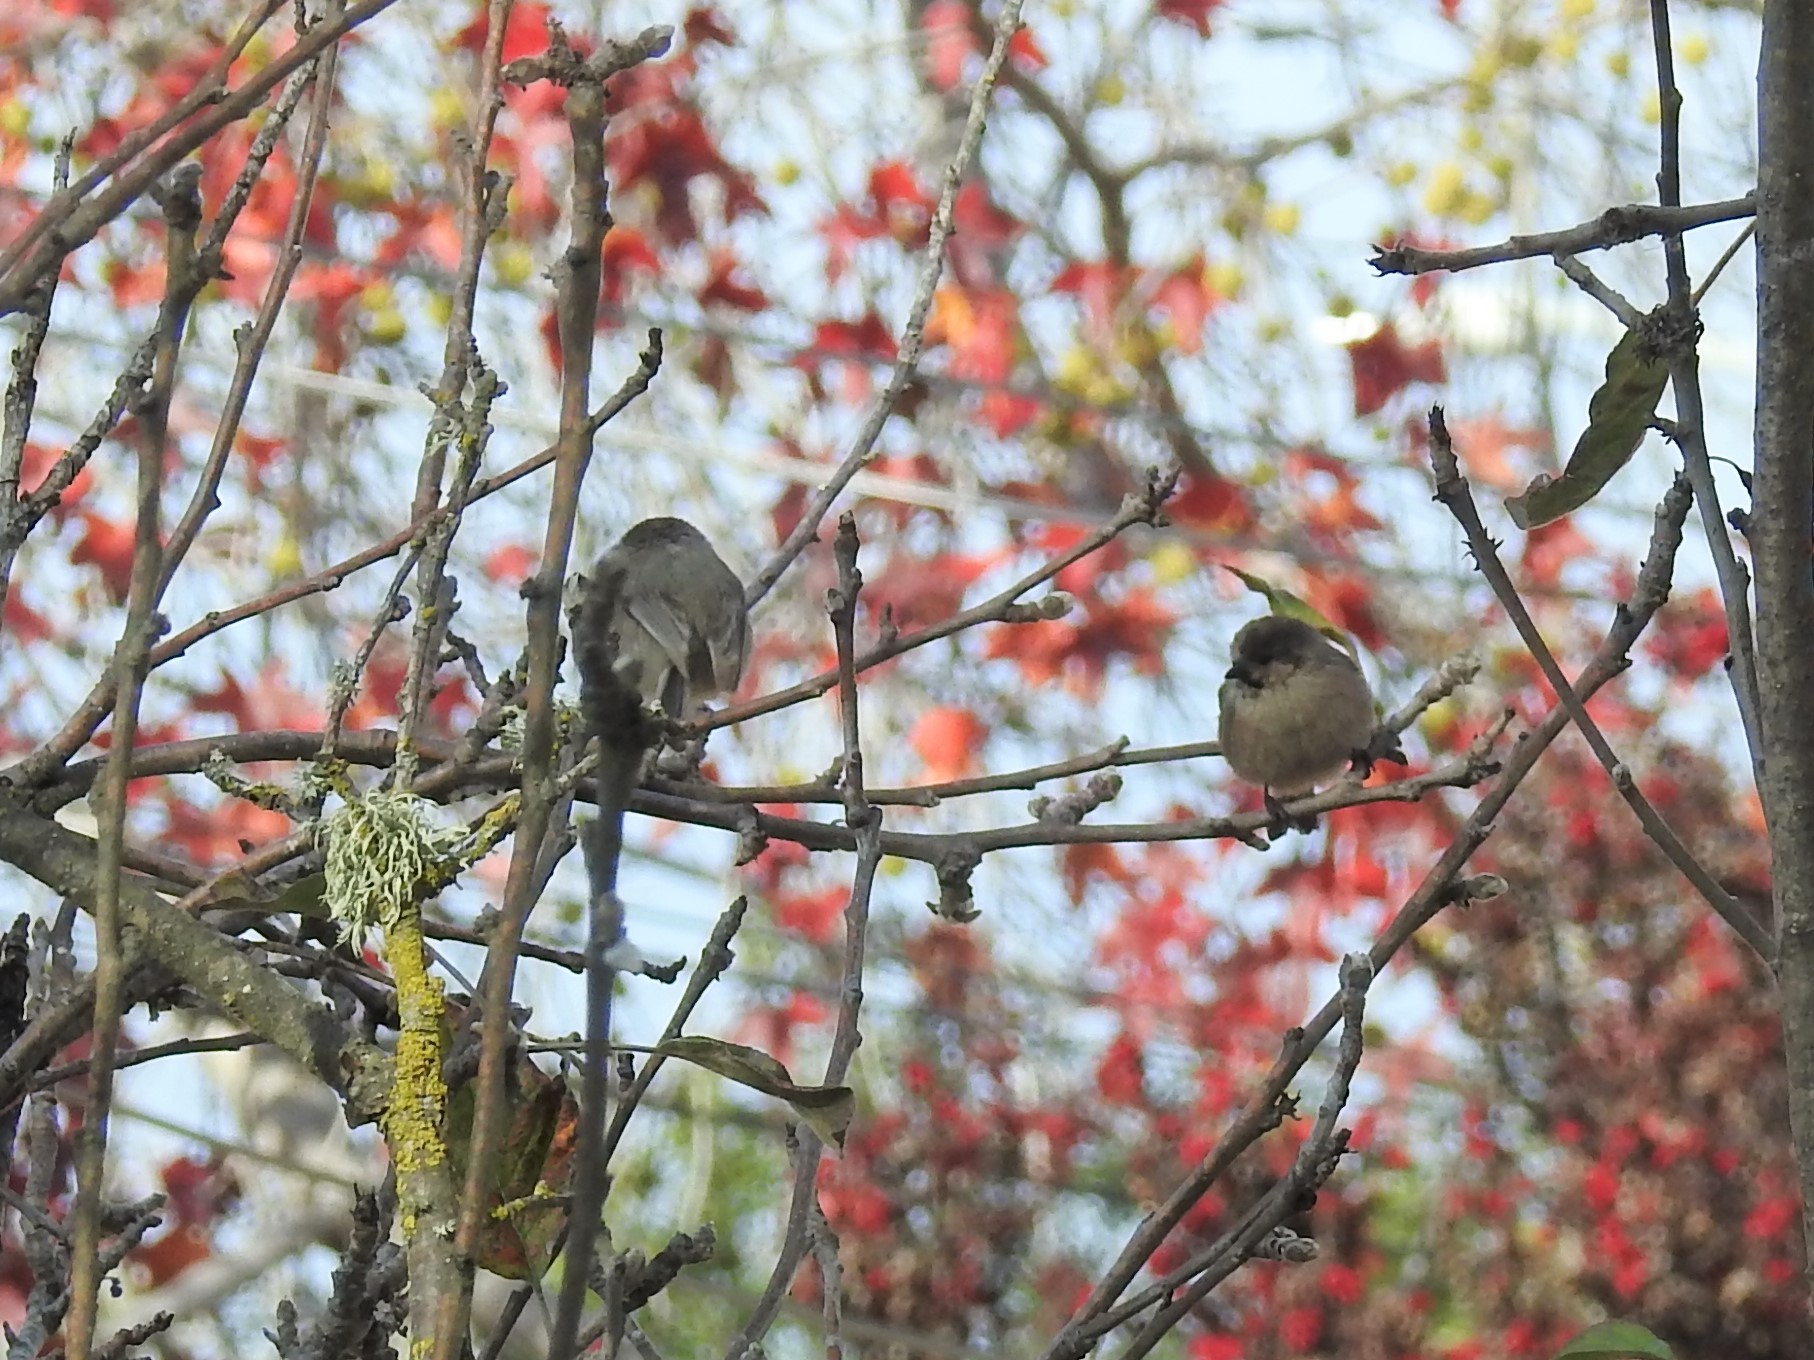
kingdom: Animalia
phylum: Chordata
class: Aves
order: Passeriformes
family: Aegithalidae
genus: Psaltriparus
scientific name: Psaltriparus minimus
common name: American bushtit
